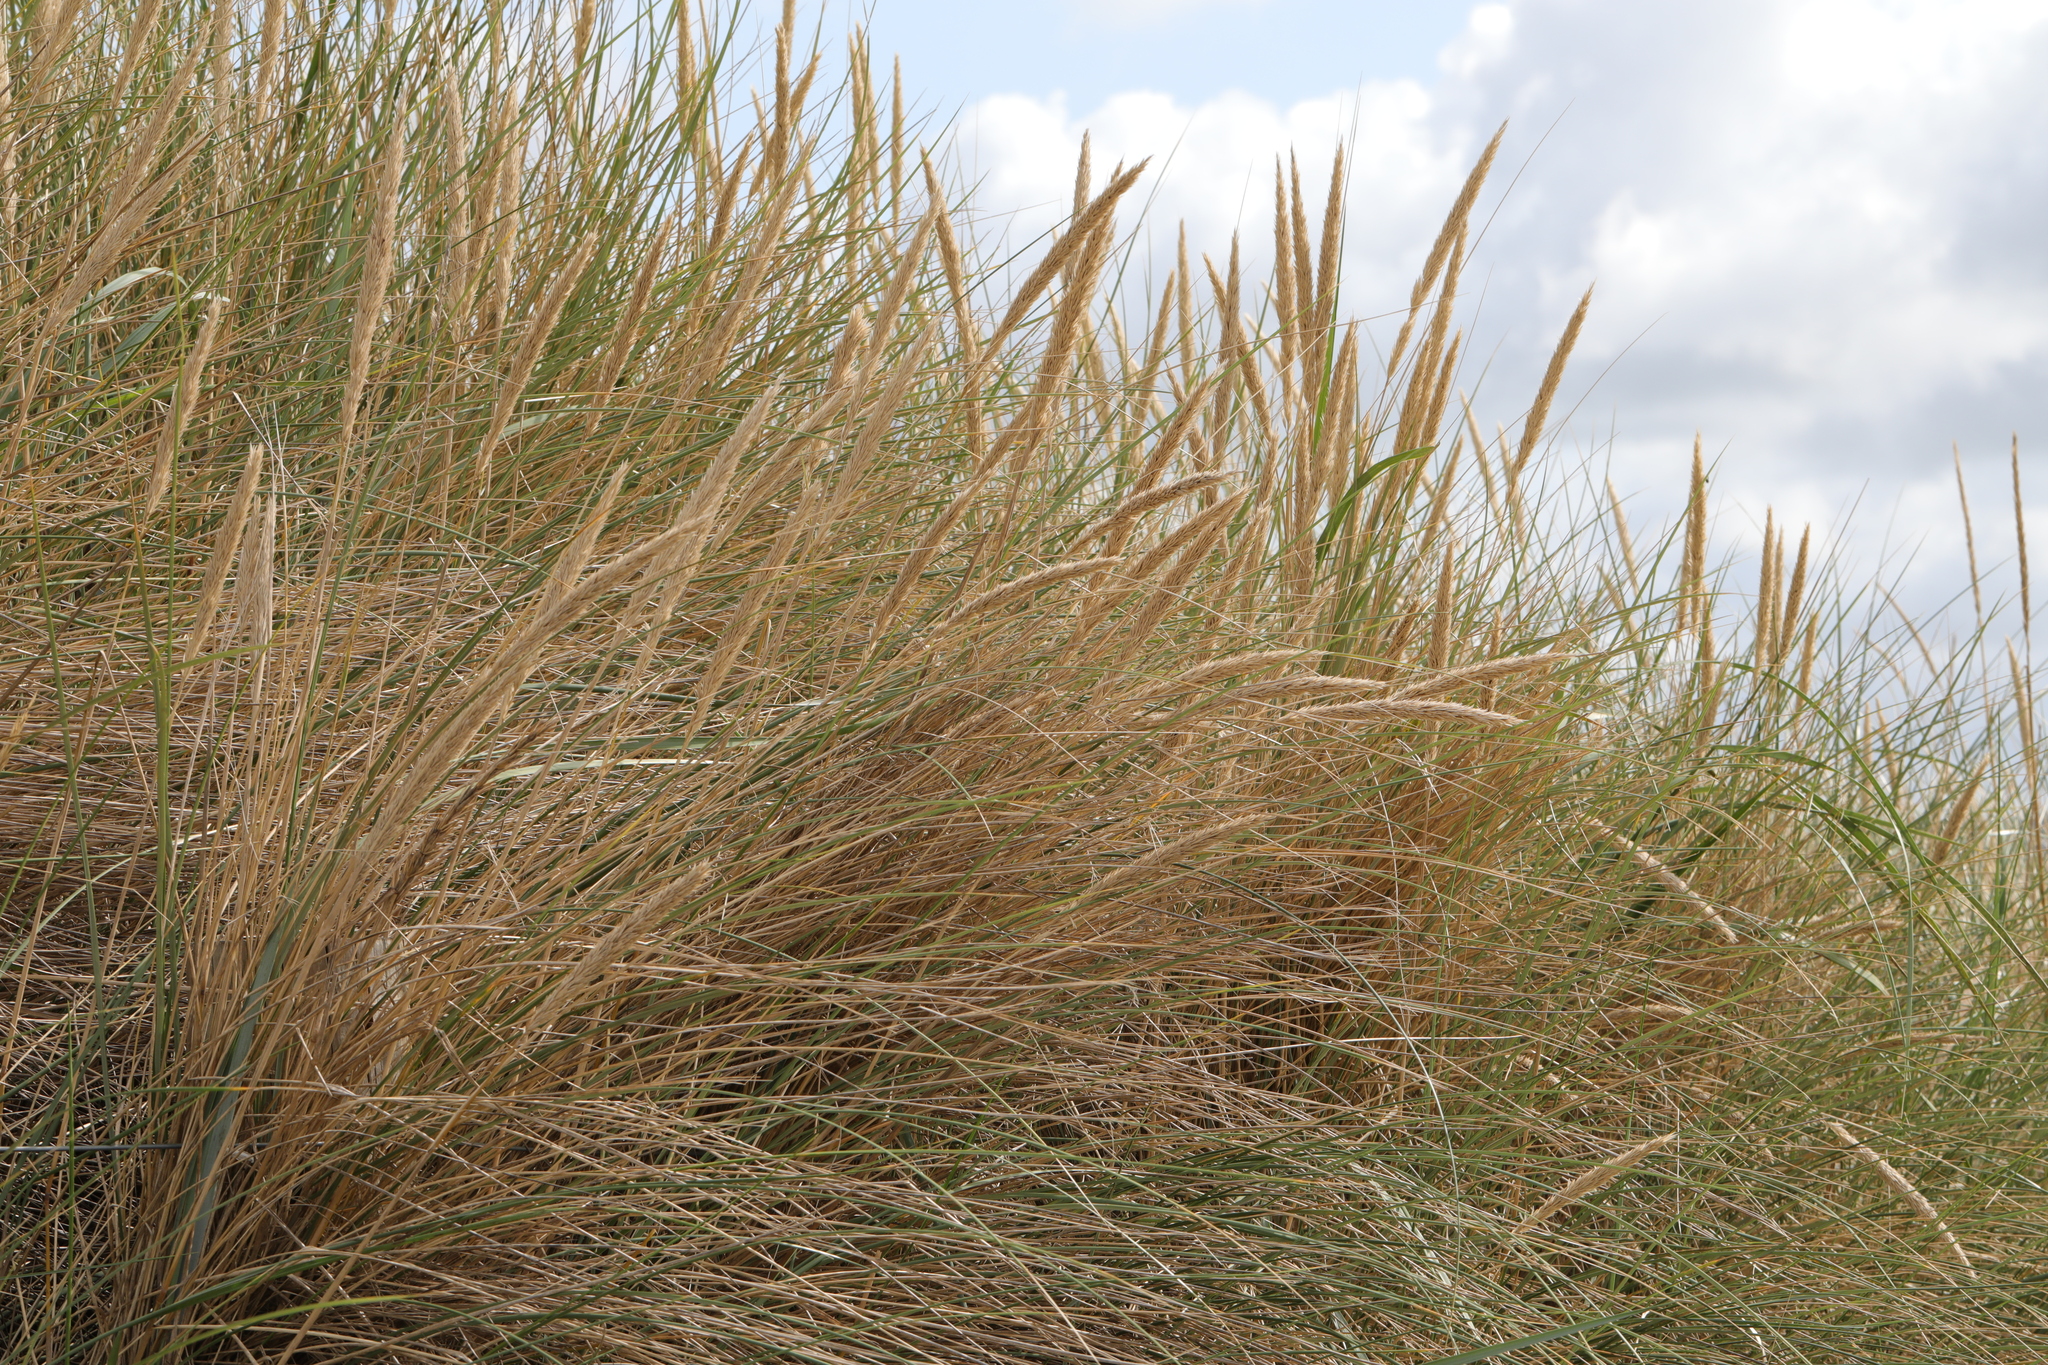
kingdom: Plantae
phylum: Tracheophyta
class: Liliopsida
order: Poales
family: Poaceae
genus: Calamagrostis
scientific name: Calamagrostis arenaria
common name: European beachgrass
